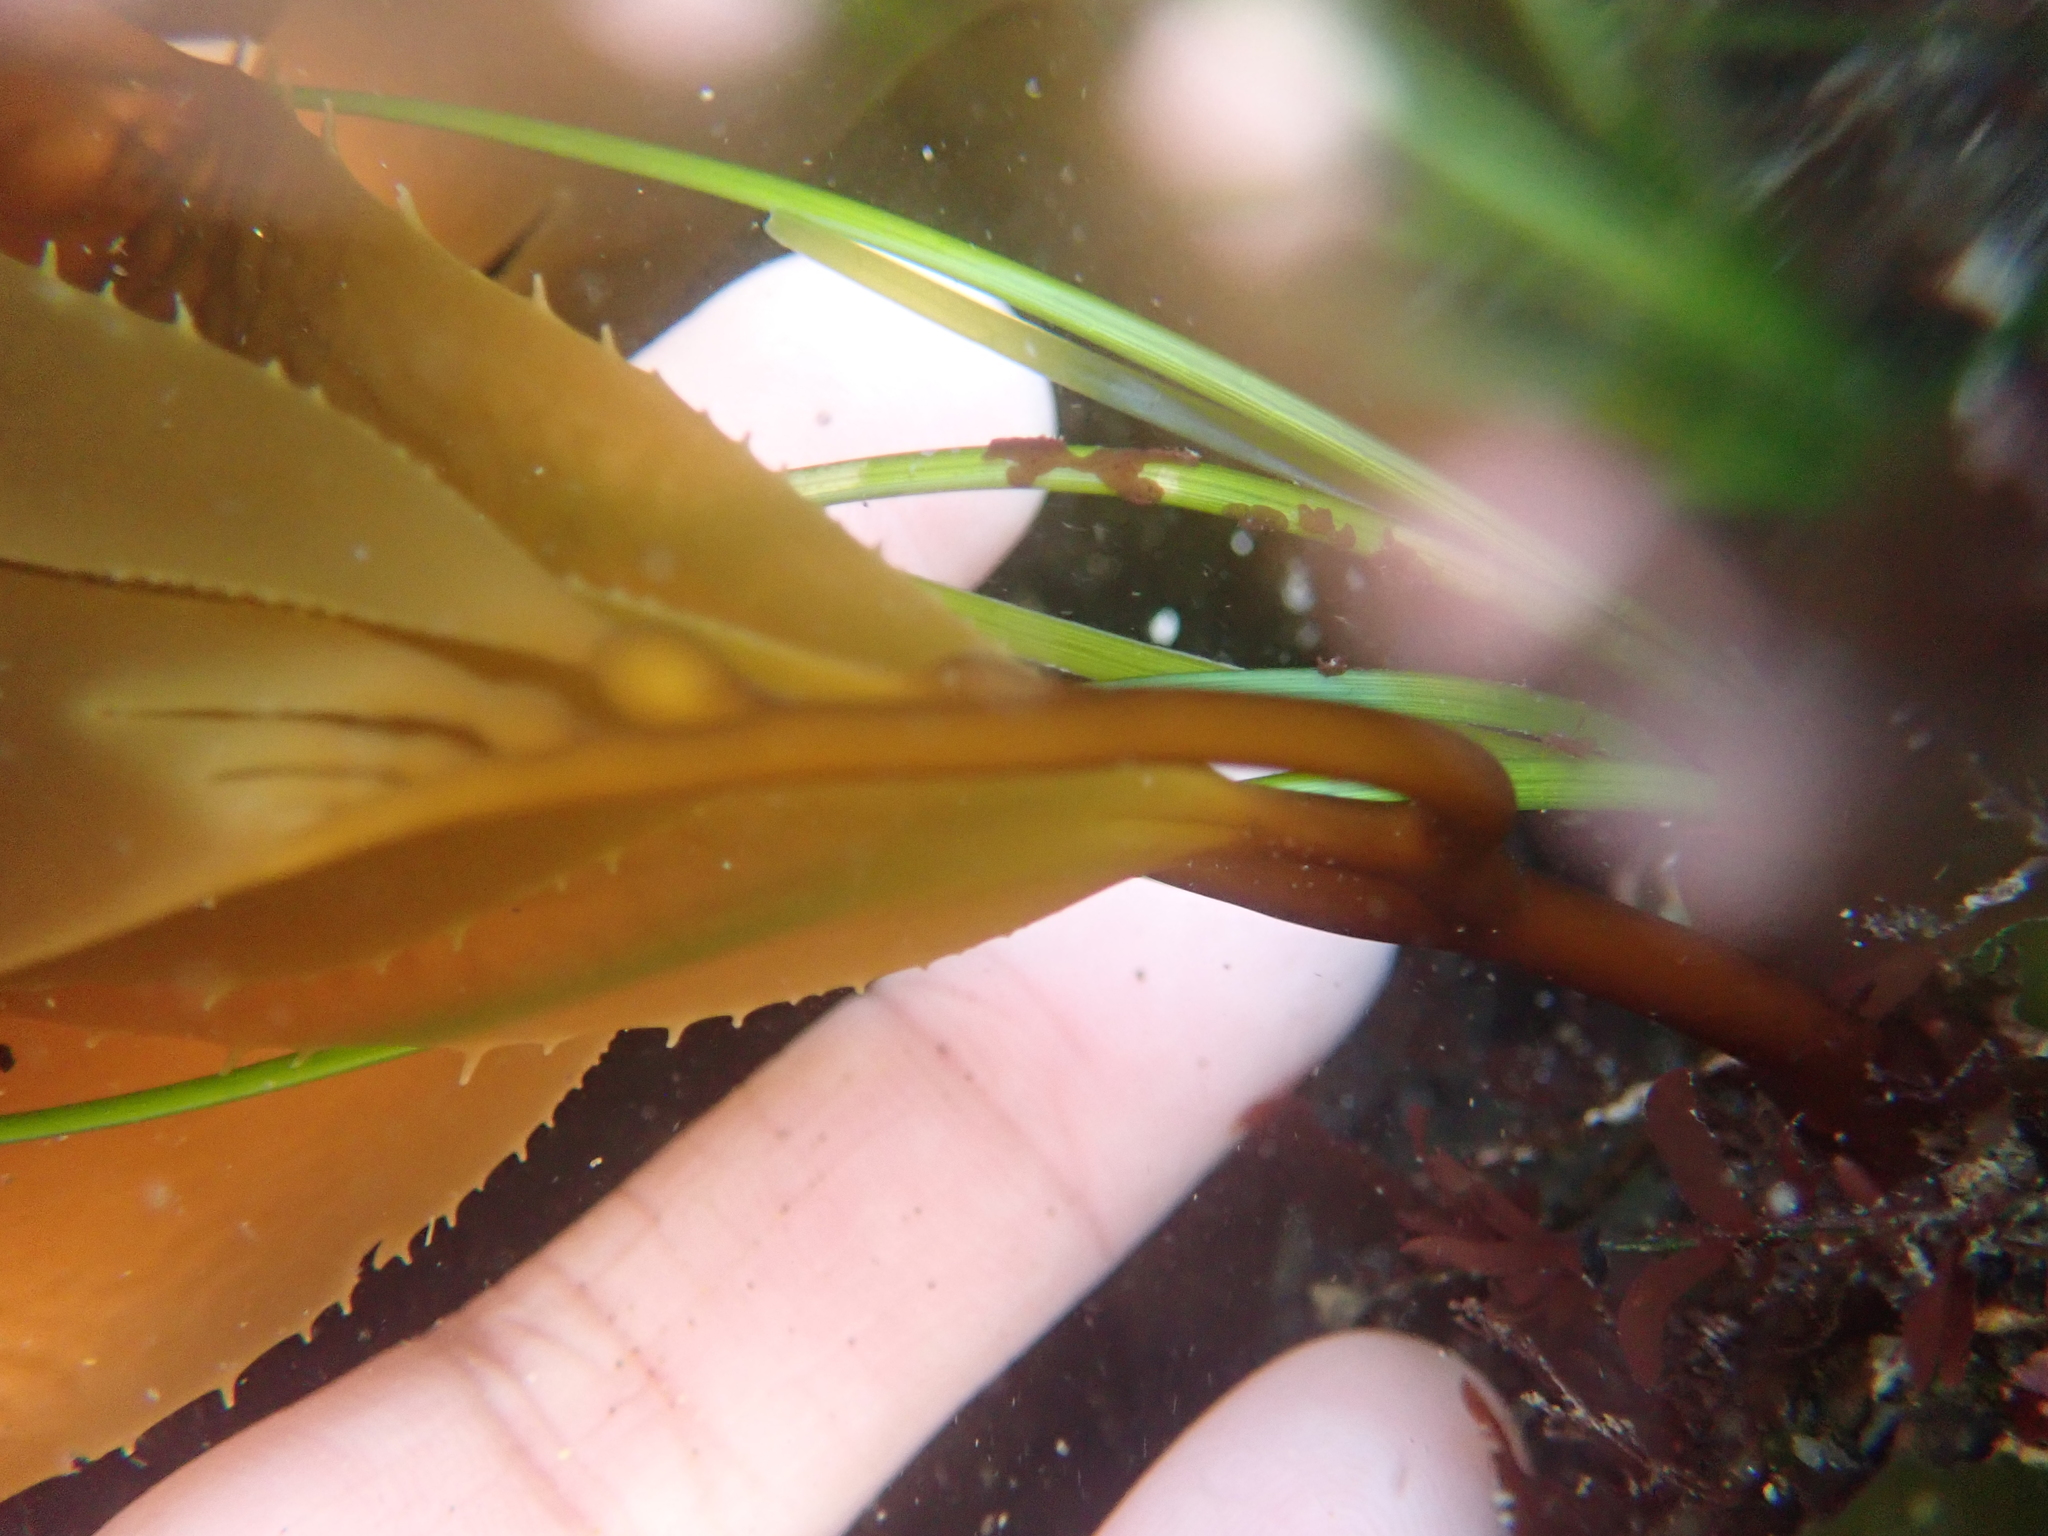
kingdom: Chromista
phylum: Ochrophyta
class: Phaeophyceae
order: Laminariales
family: Laminariaceae
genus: Macrocystis
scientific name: Macrocystis pyrifera
